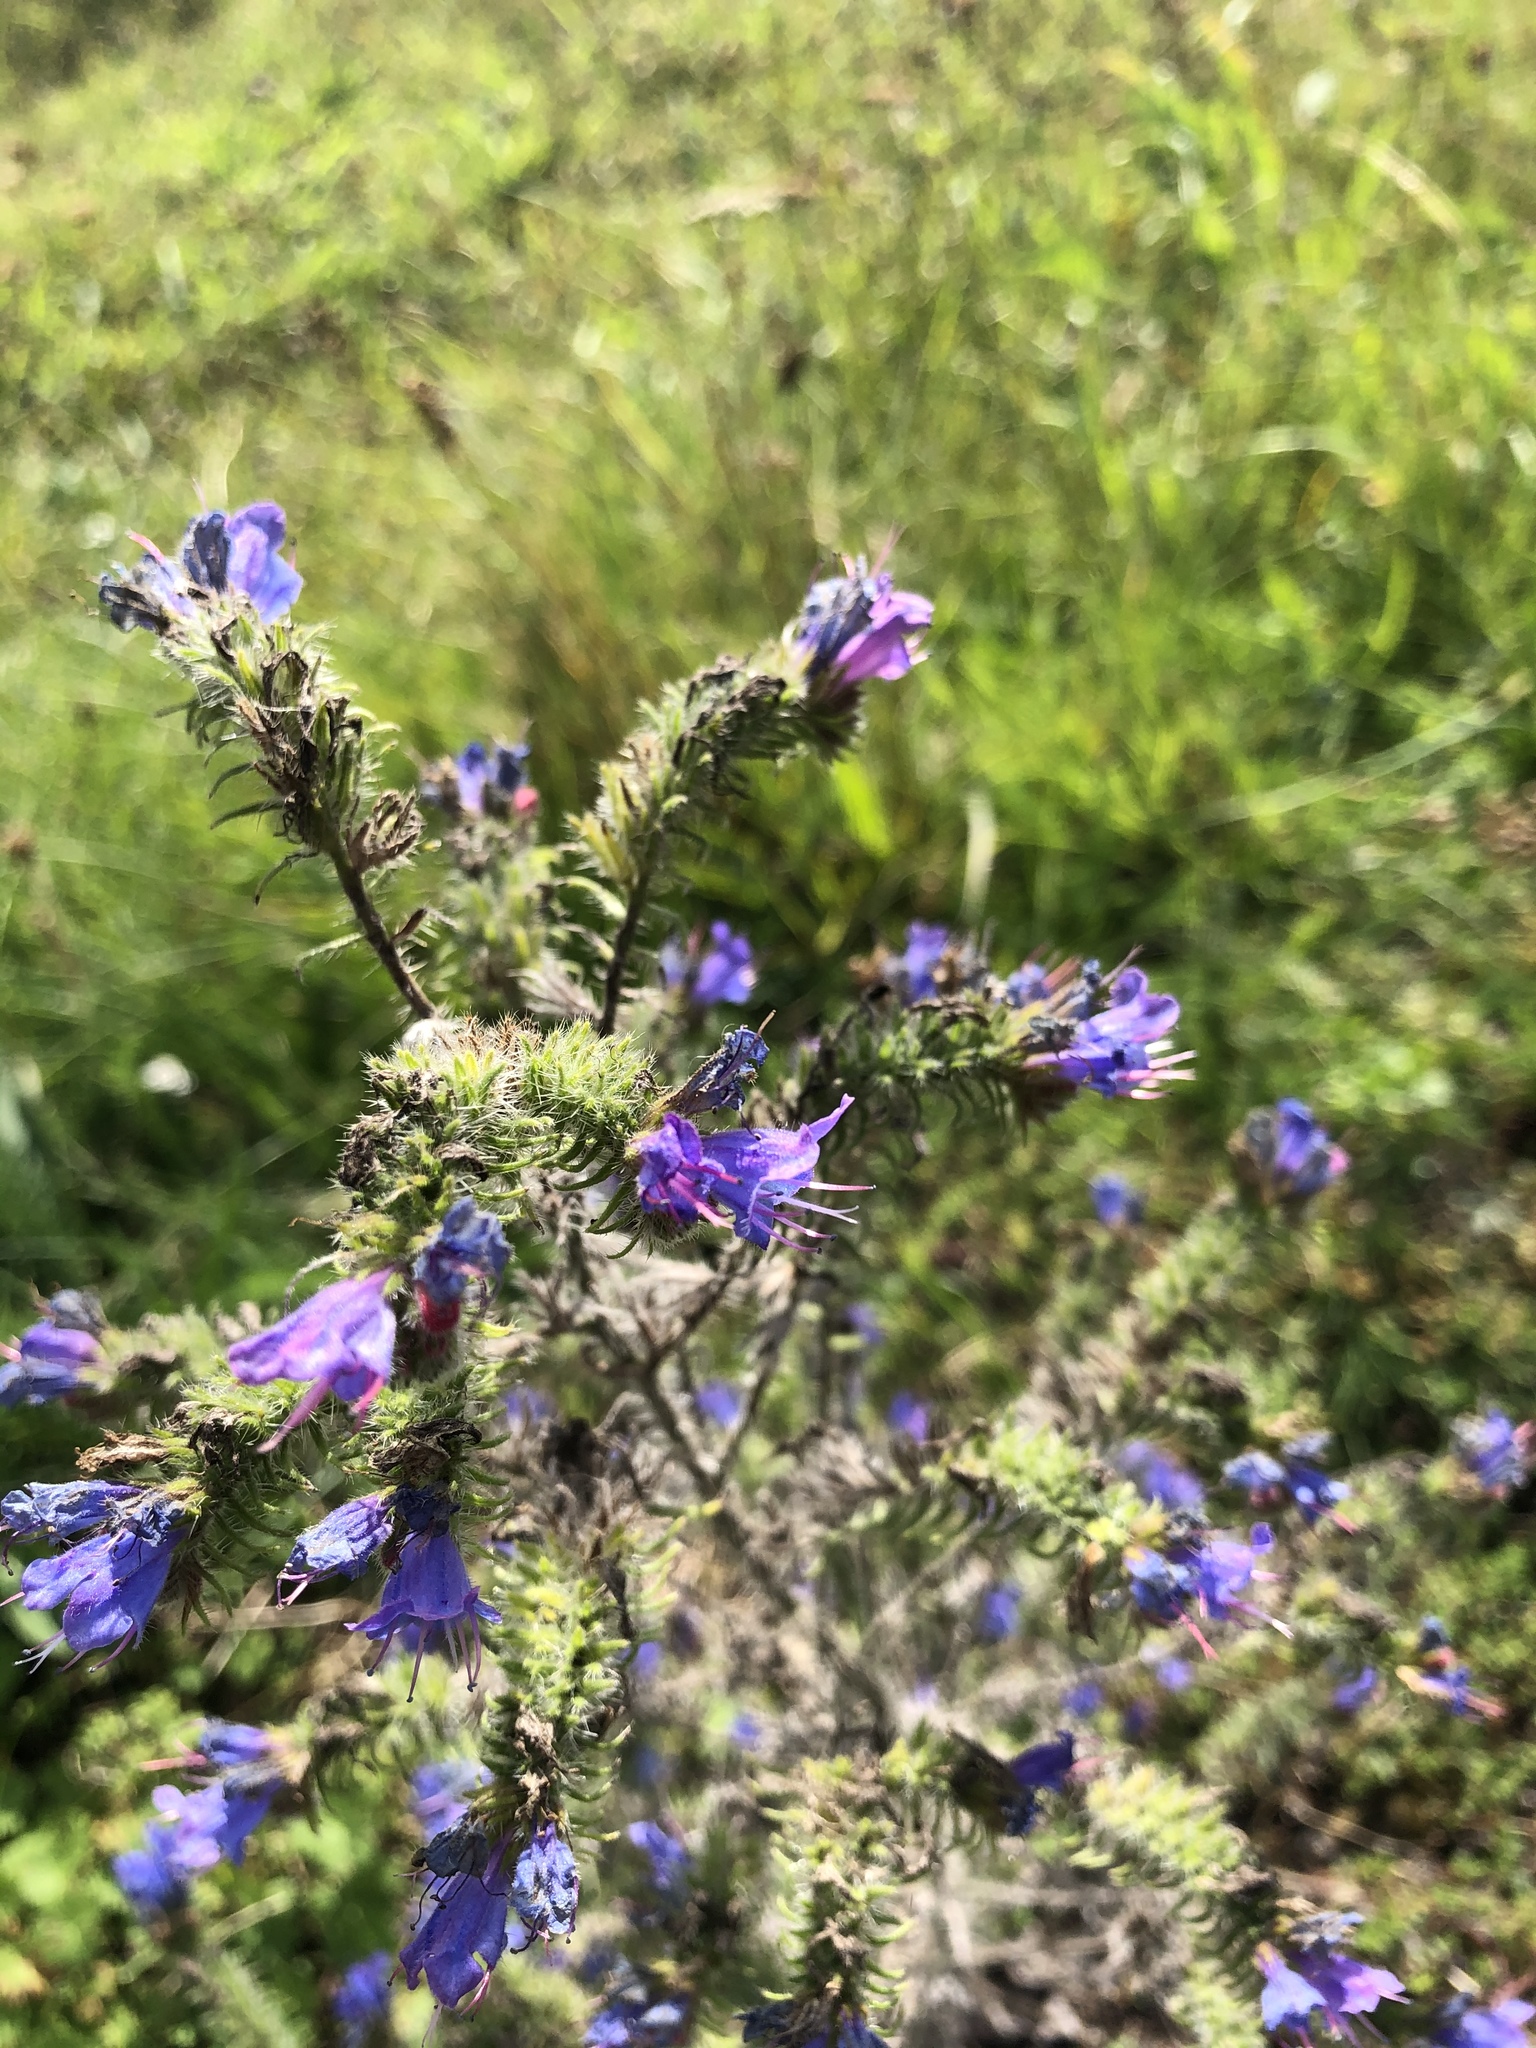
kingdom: Plantae
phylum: Tracheophyta
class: Magnoliopsida
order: Boraginales
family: Boraginaceae
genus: Echium
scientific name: Echium vulgare
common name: Common viper's bugloss
